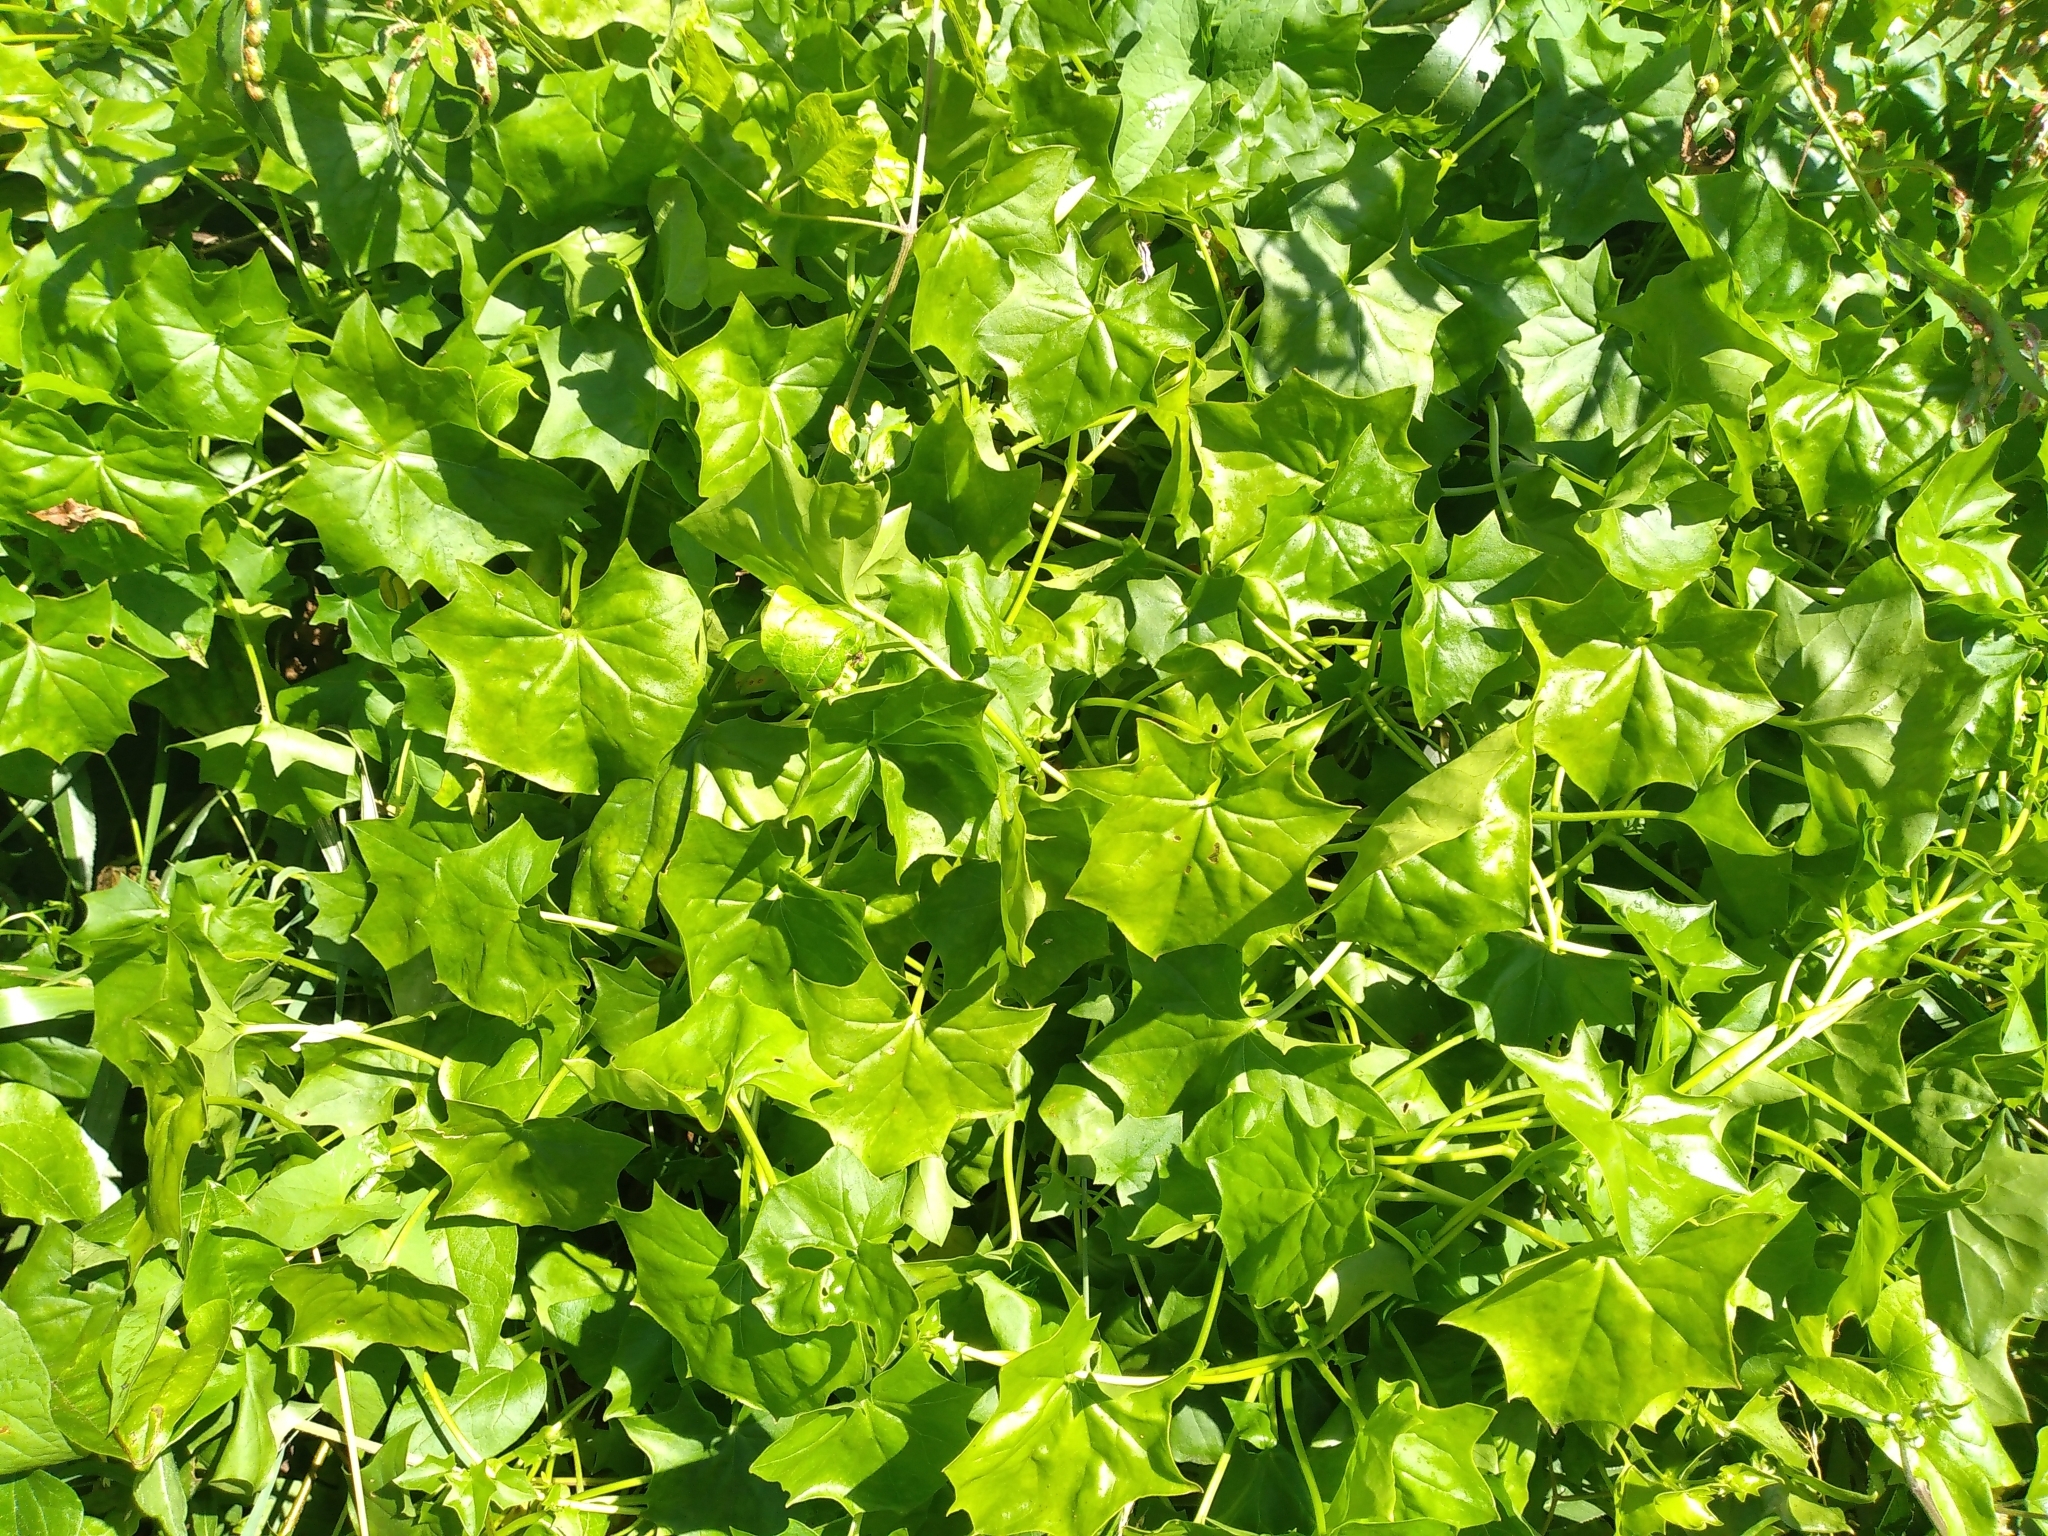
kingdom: Plantae
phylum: Tracheophyta
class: Magnoliopsida
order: Asterales
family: Asteraceae
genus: Delairea
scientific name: Delairea odorata
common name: Cape-ivy
